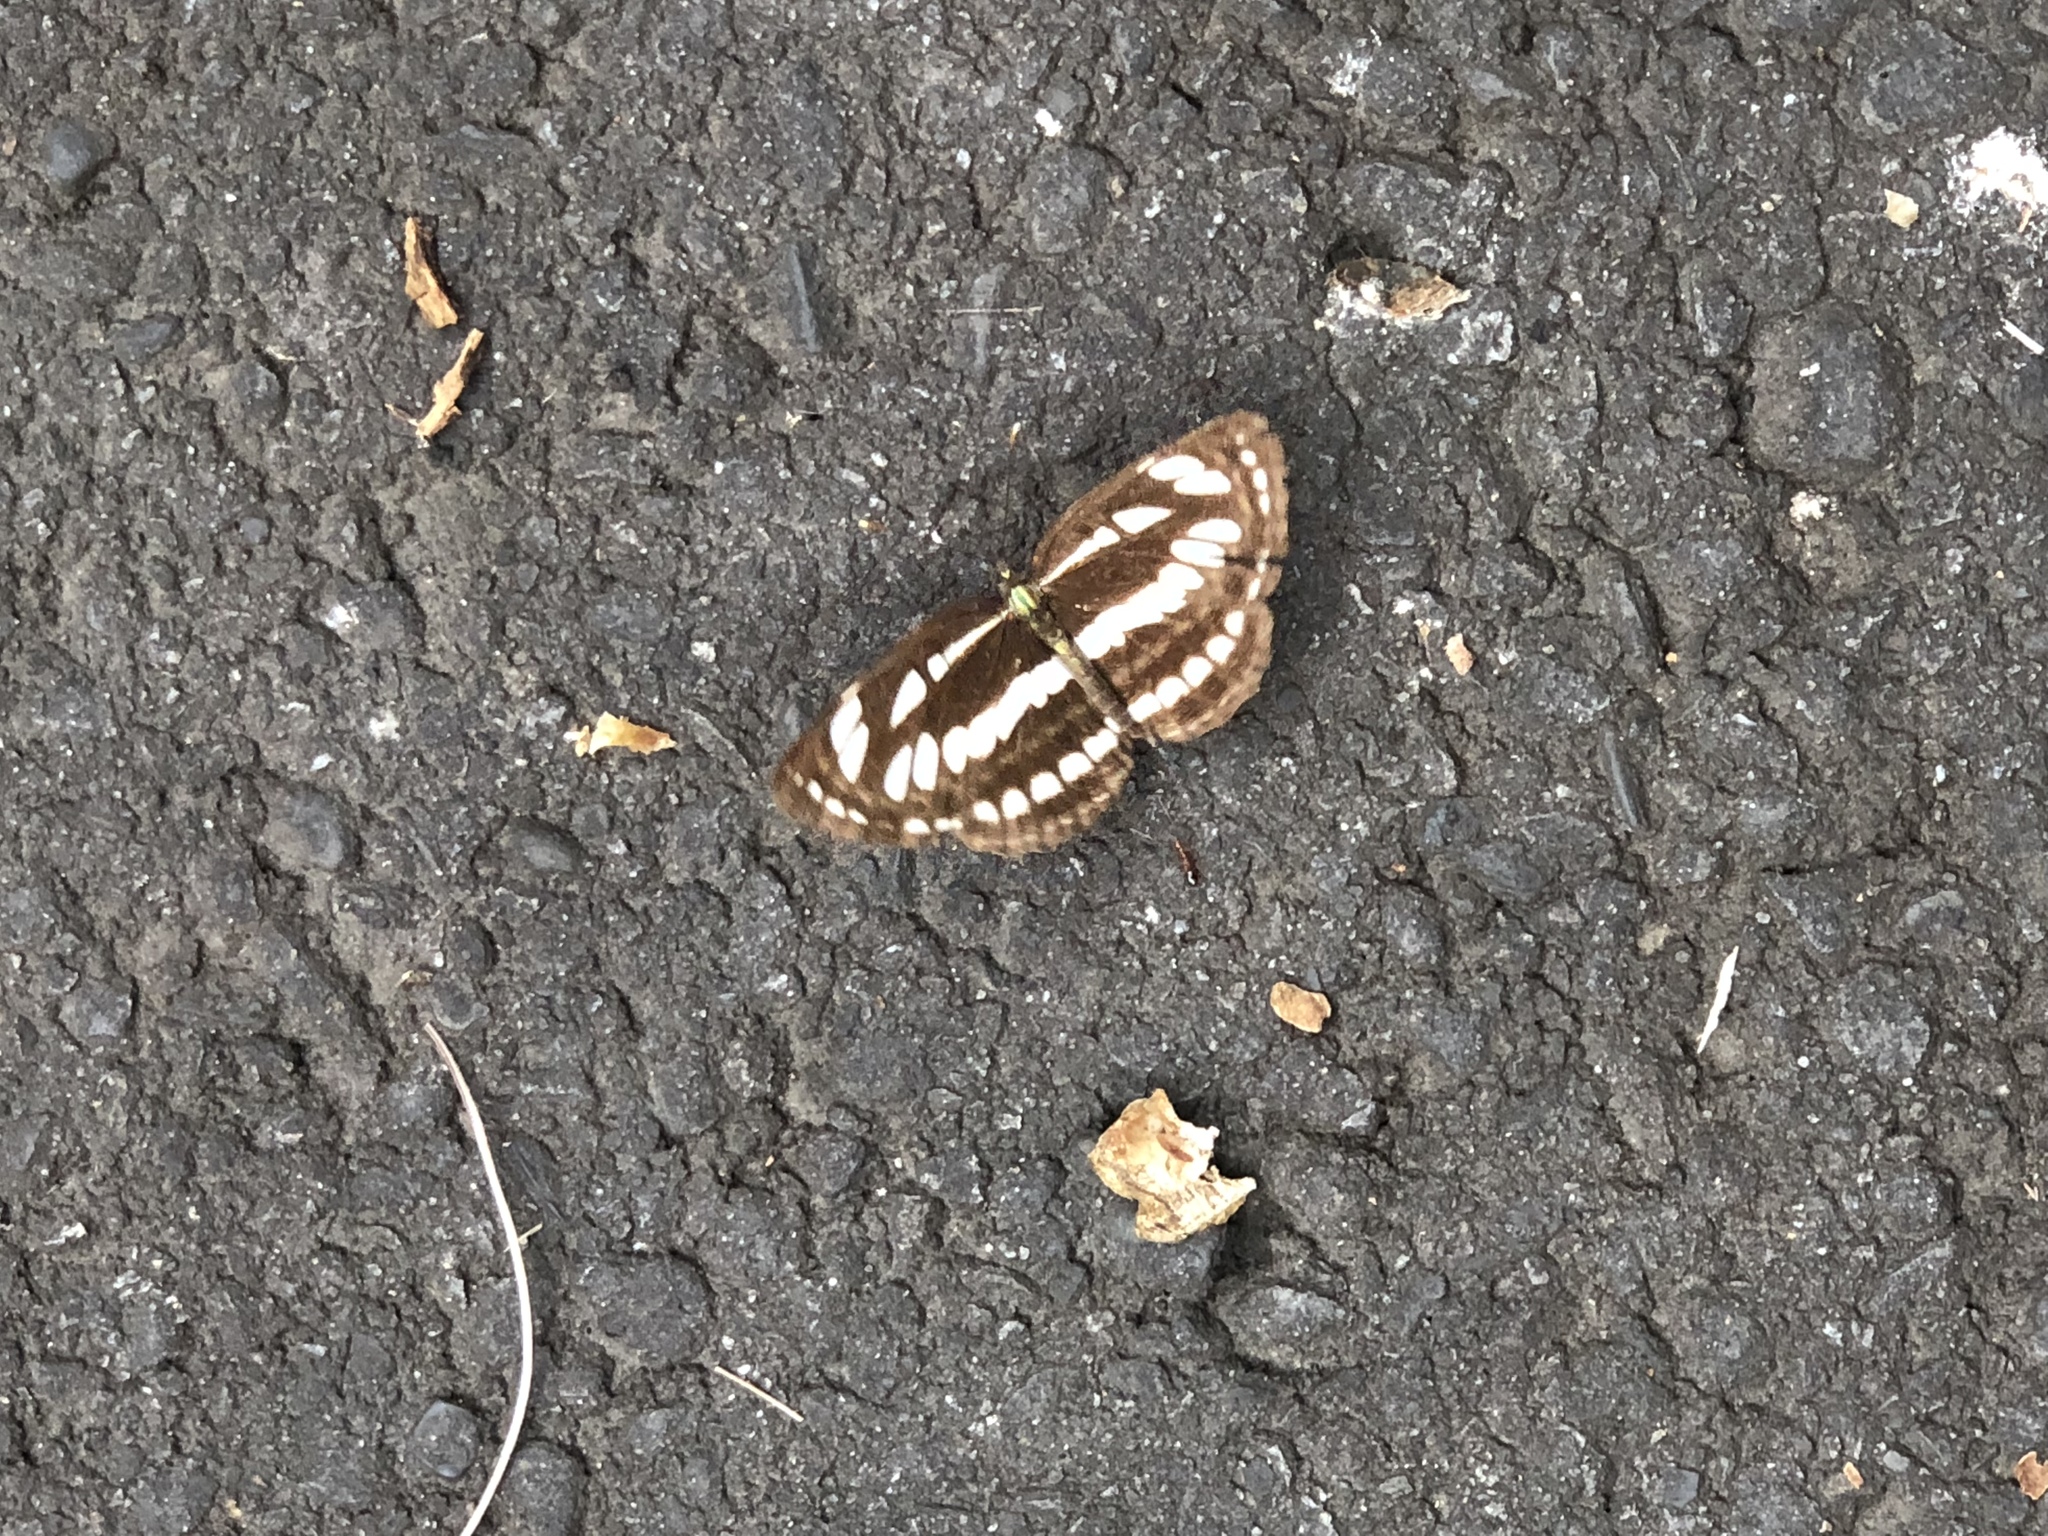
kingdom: Animalia
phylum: Arthropoda
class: Insecta
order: Lepidoptera
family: Nymphalidae
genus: Neptis
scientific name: Neptis hylas
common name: Common sailer
